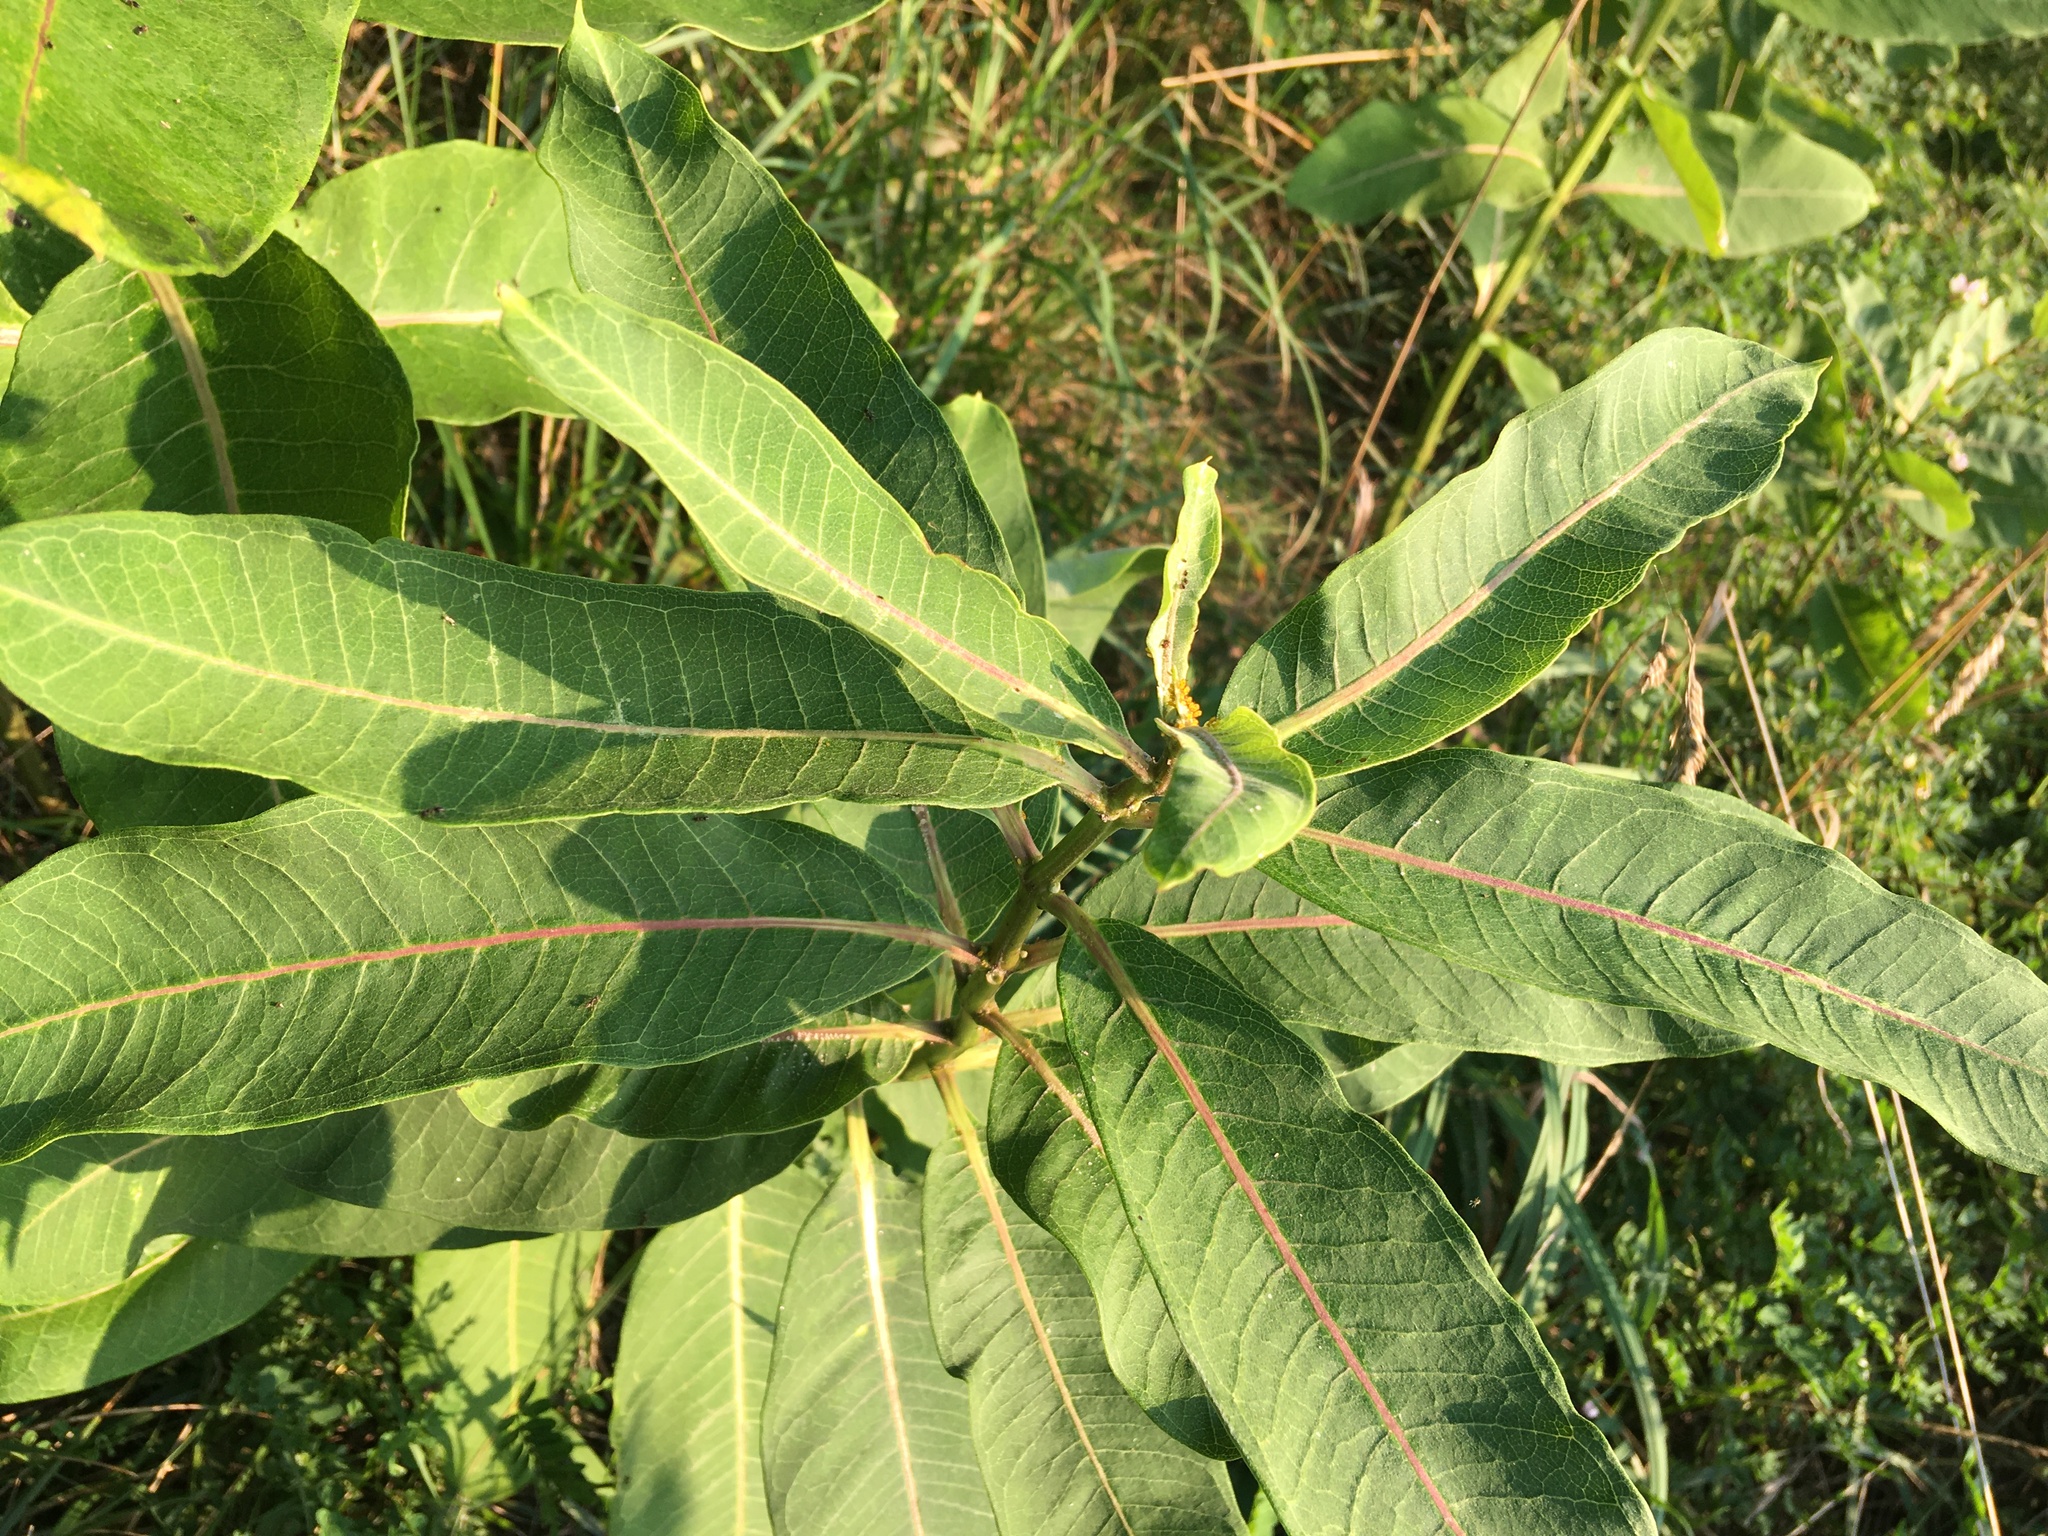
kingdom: Plantae
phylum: Tracheophyta
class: Magnoliopsida
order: Gentianales
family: Apocynaceae
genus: Asclepias
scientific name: Asclepias syriaca
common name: Common milkweed
